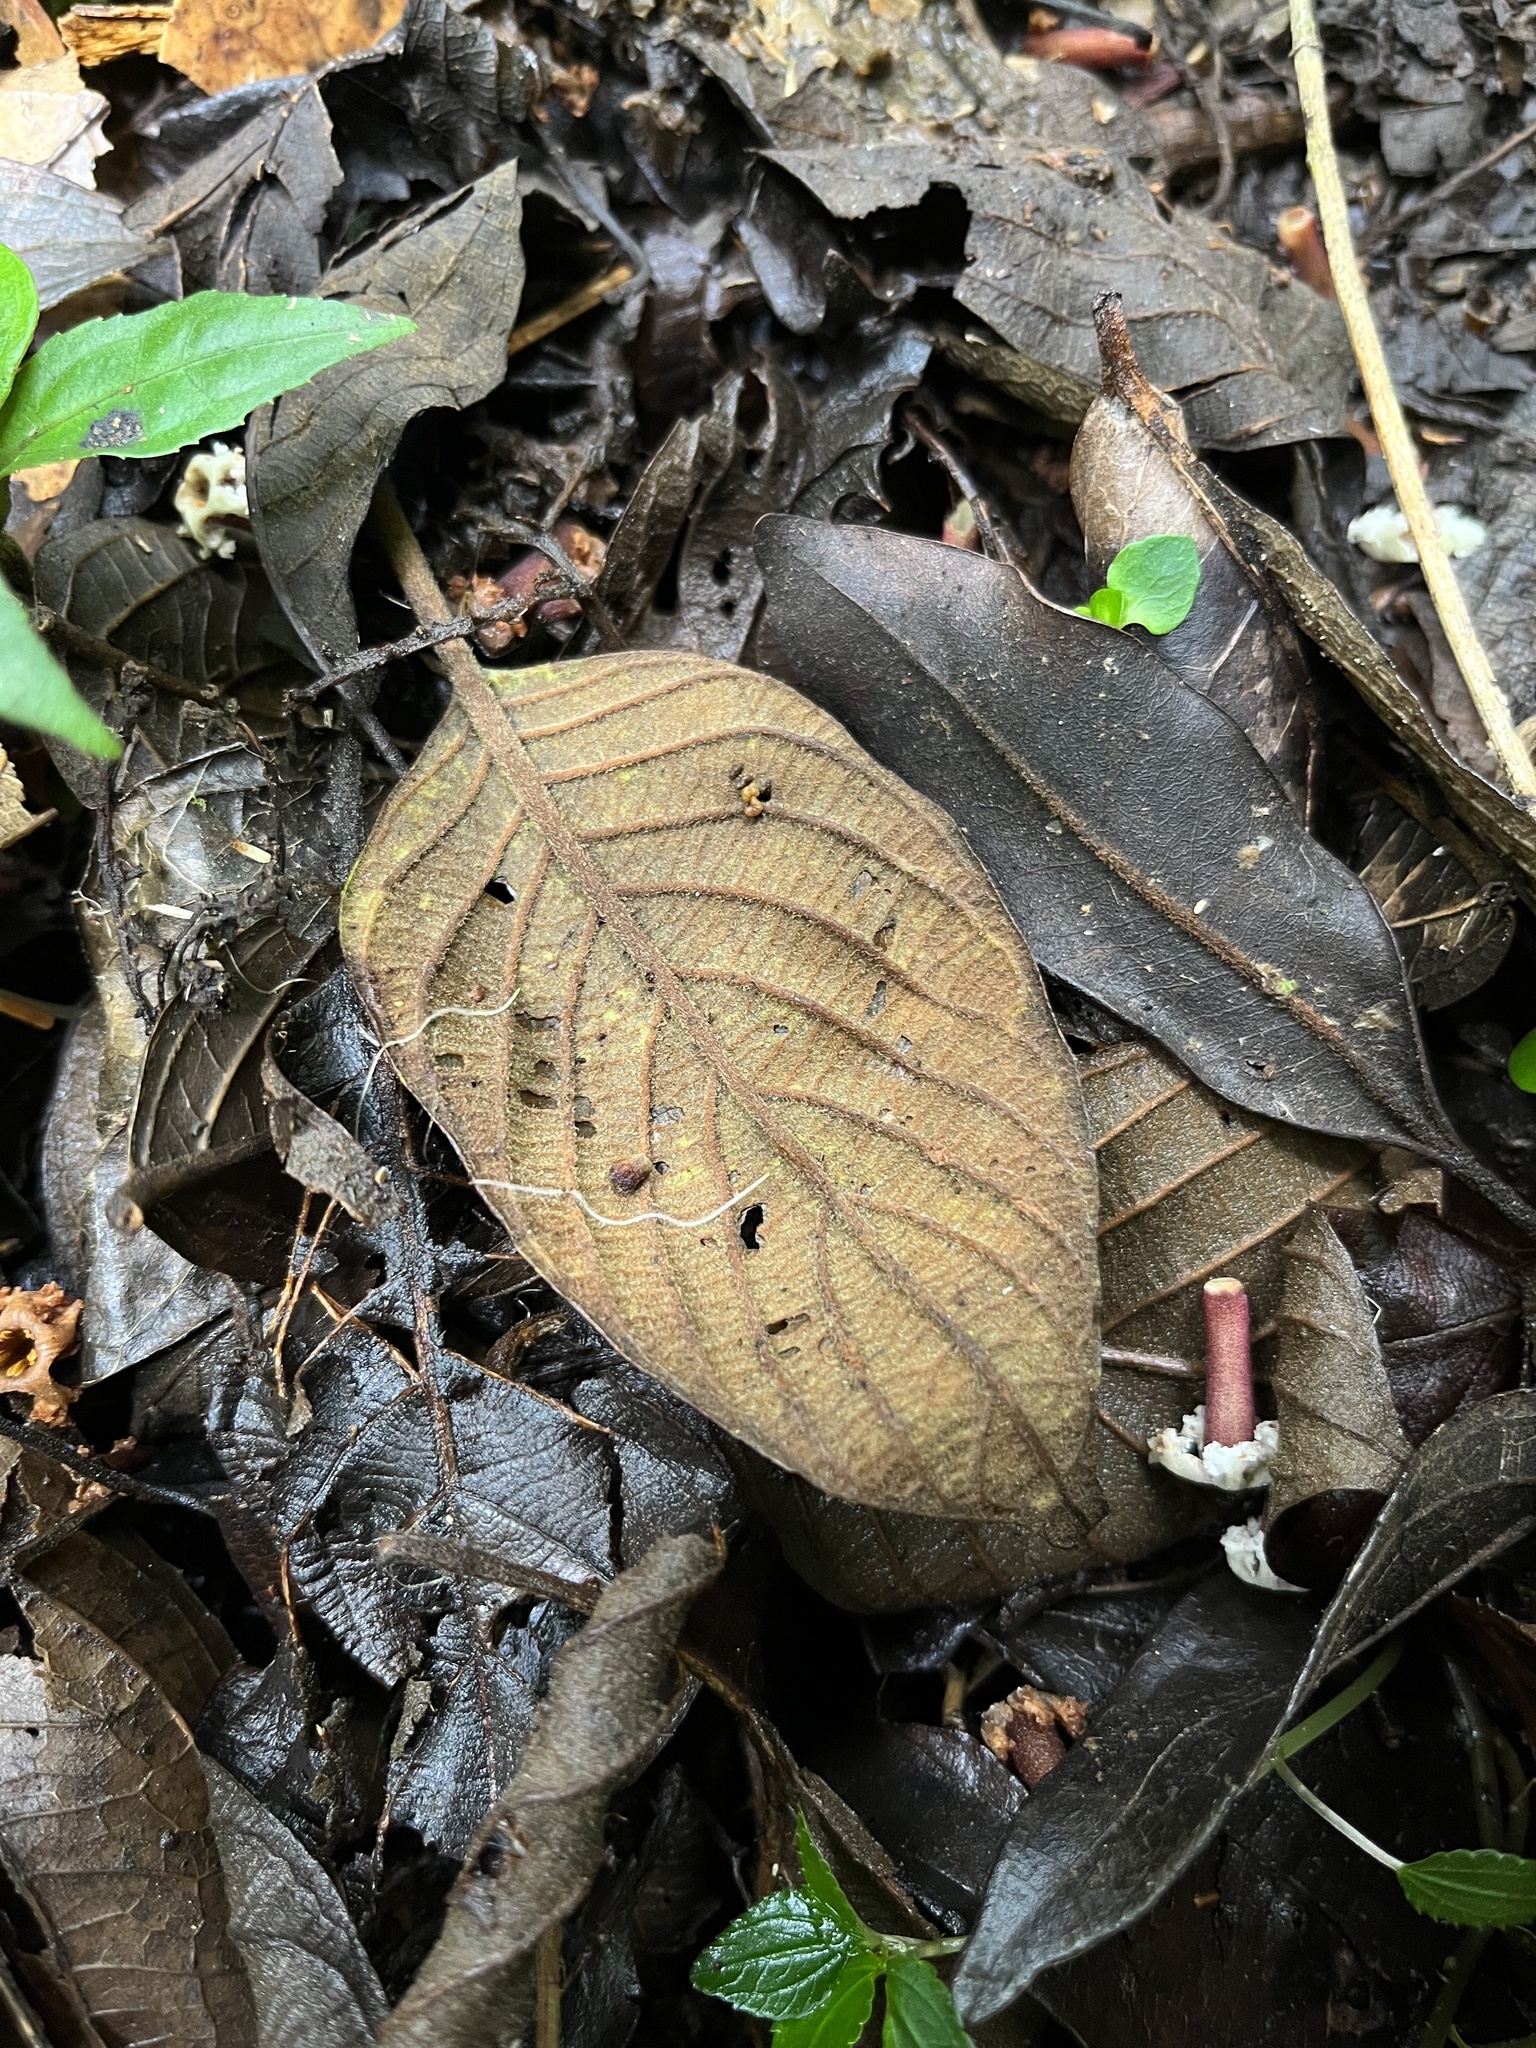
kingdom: Plantae
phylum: Tracheophyta
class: Magnoliopsida
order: Gentianales
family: Rubiaceae
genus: Guettarda
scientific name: Guettarda dependens
